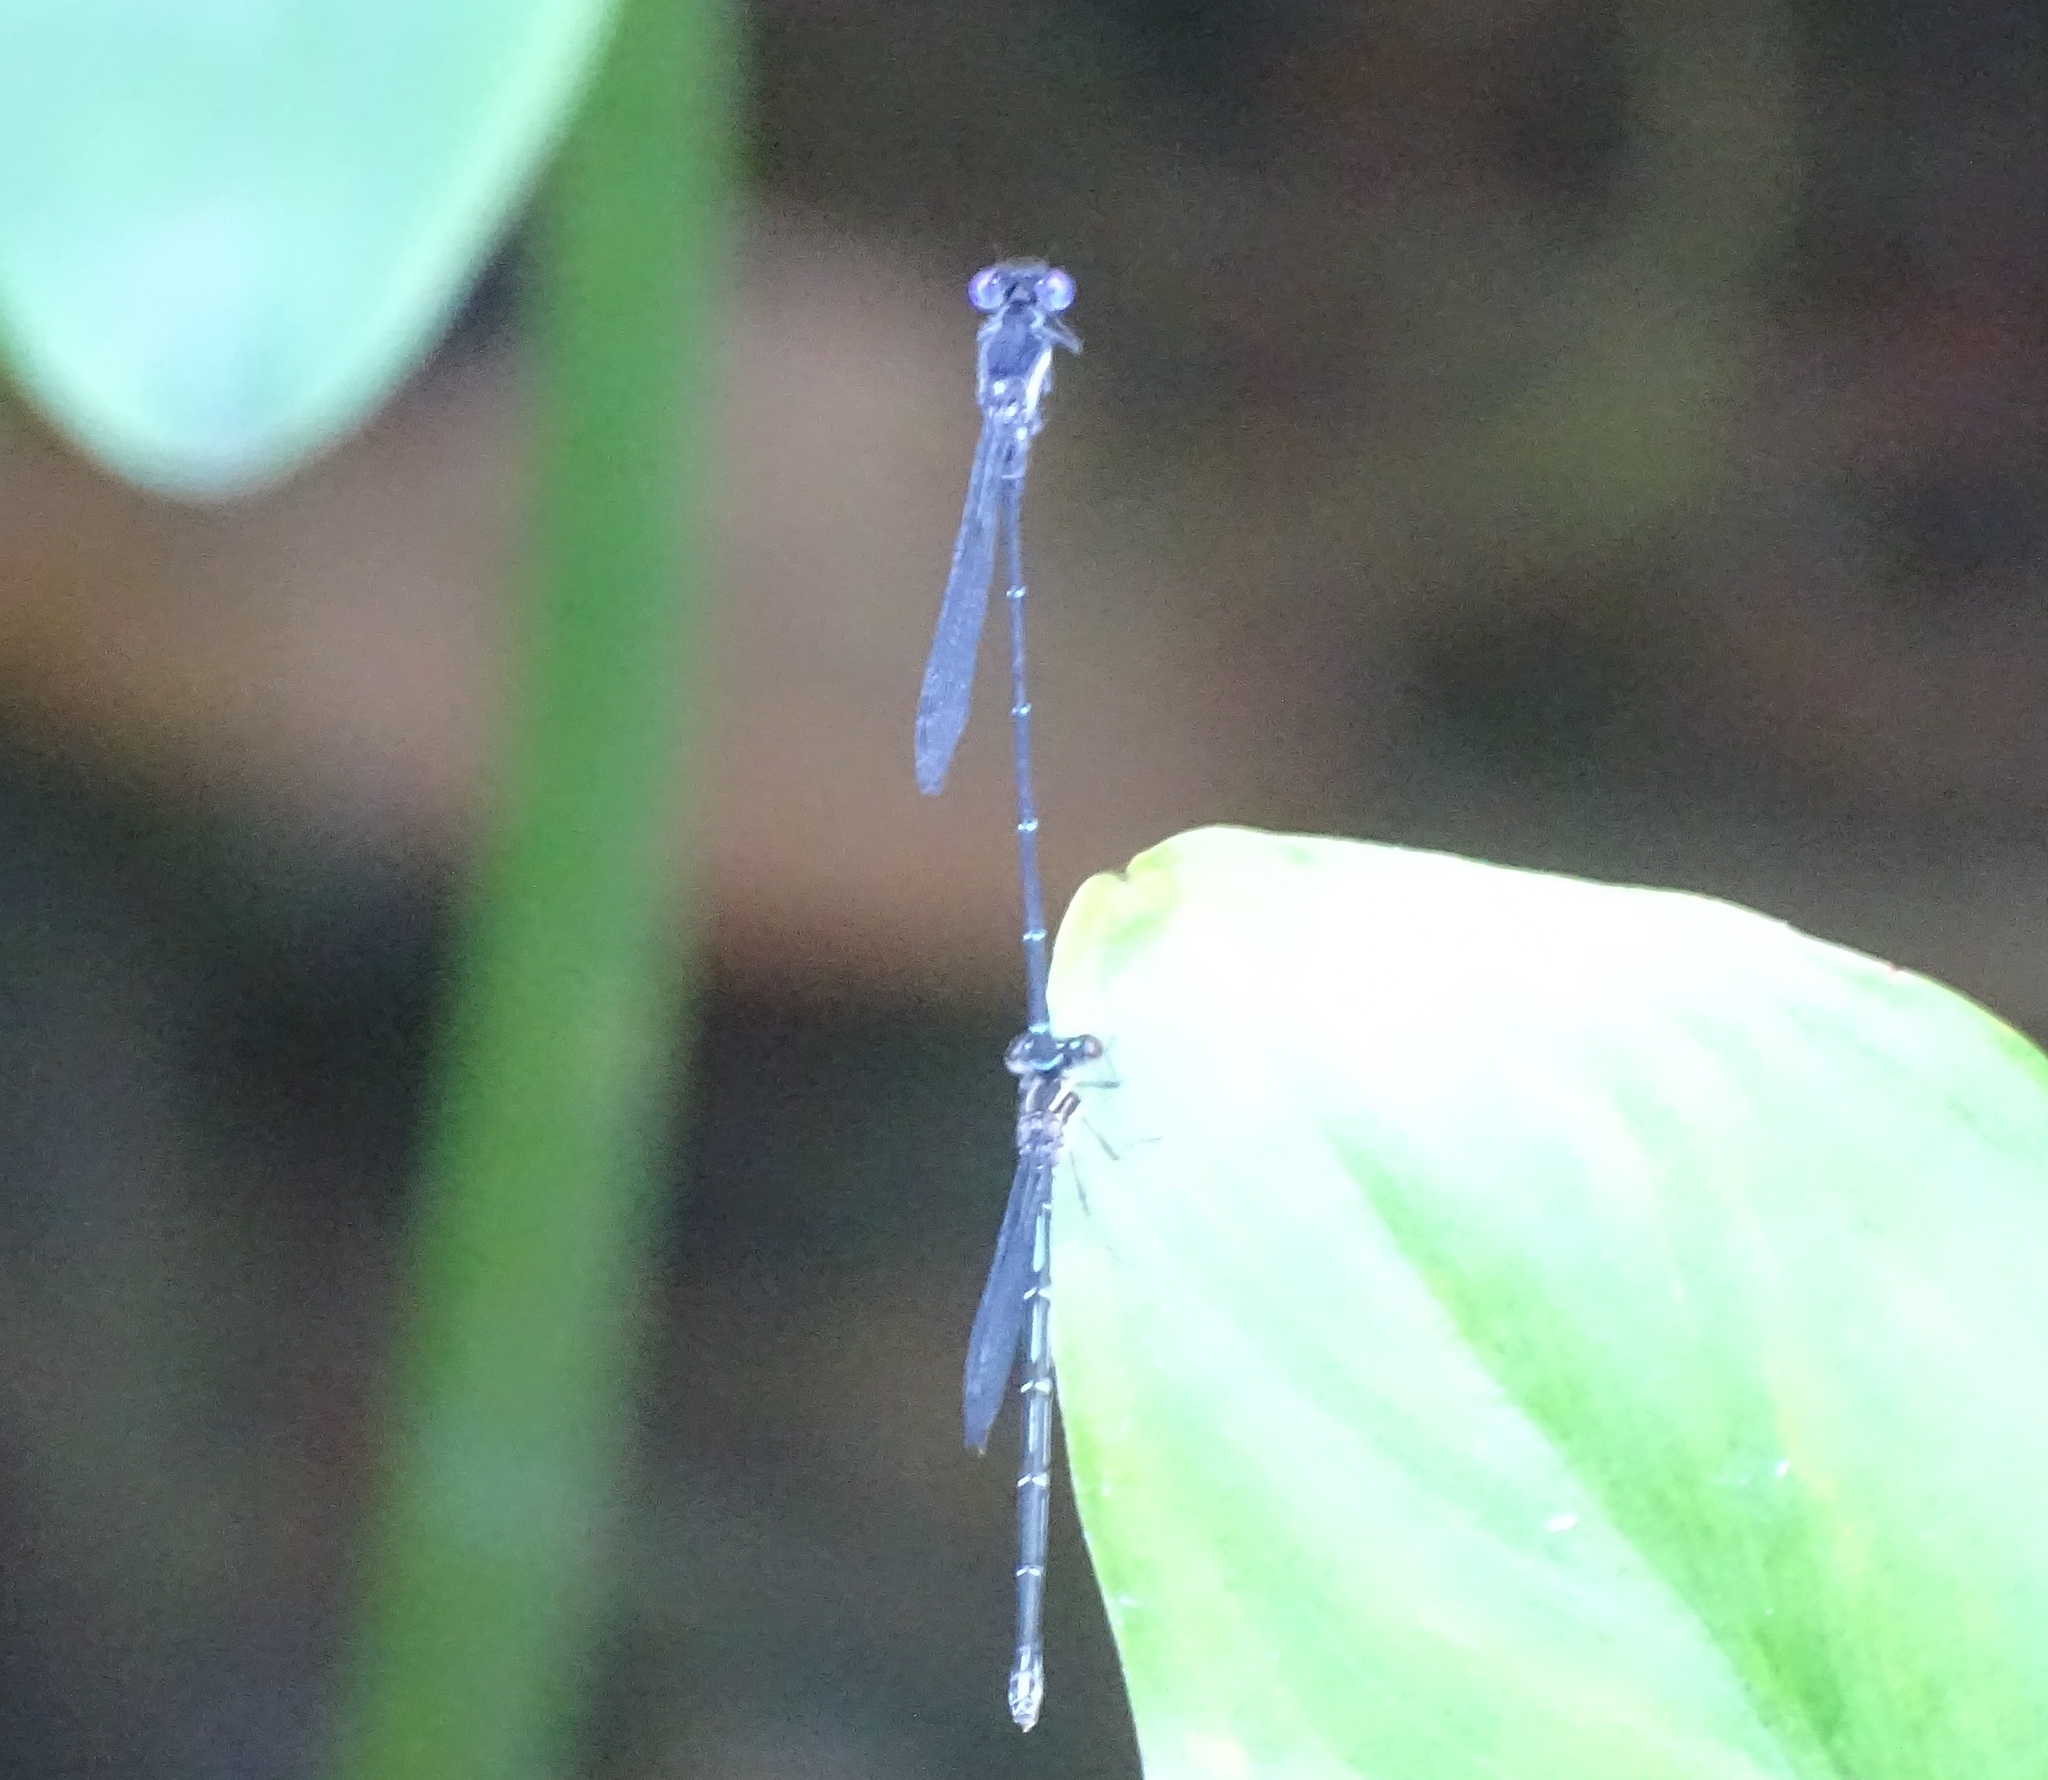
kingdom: Animalia
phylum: Arthropoda
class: Insecta
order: Odonata
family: Coenagrionidae
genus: Argia
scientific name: Argia translata
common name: Dusky dancer
